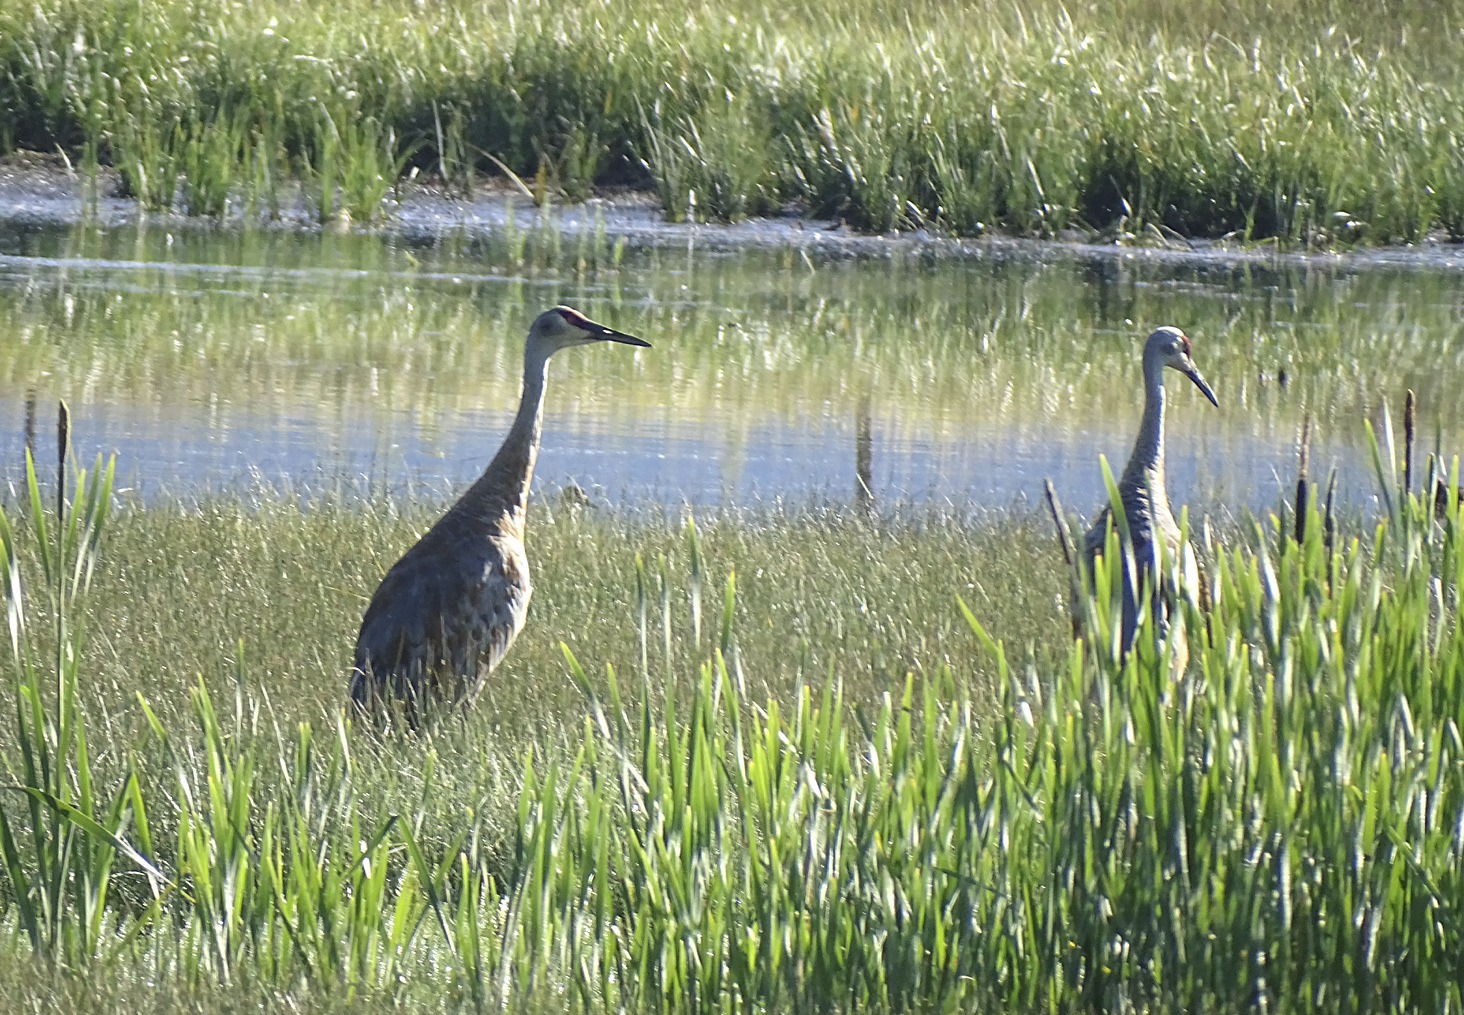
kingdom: Animalia
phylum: Chordata
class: Aves
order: Gruiformes
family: Gruidae
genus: Grus
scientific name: Grus canadensis
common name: Sandhill crane
